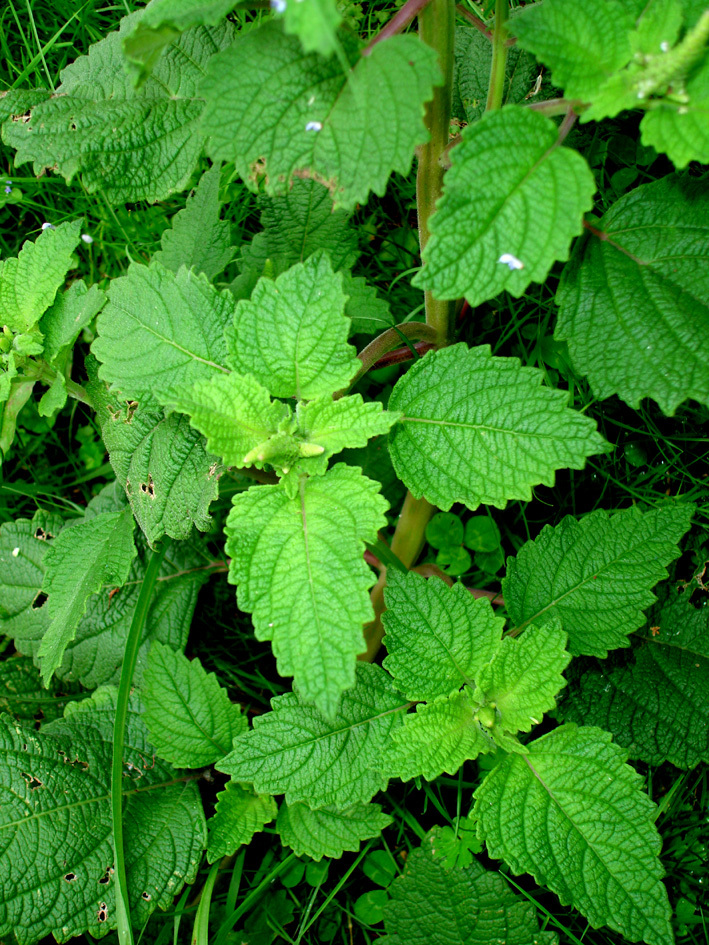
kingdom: Plantae
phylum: Tracheophyta
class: Magnoliopsida
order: Lamiales
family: Lamiaceae
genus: Coleus
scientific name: Coleus australis
